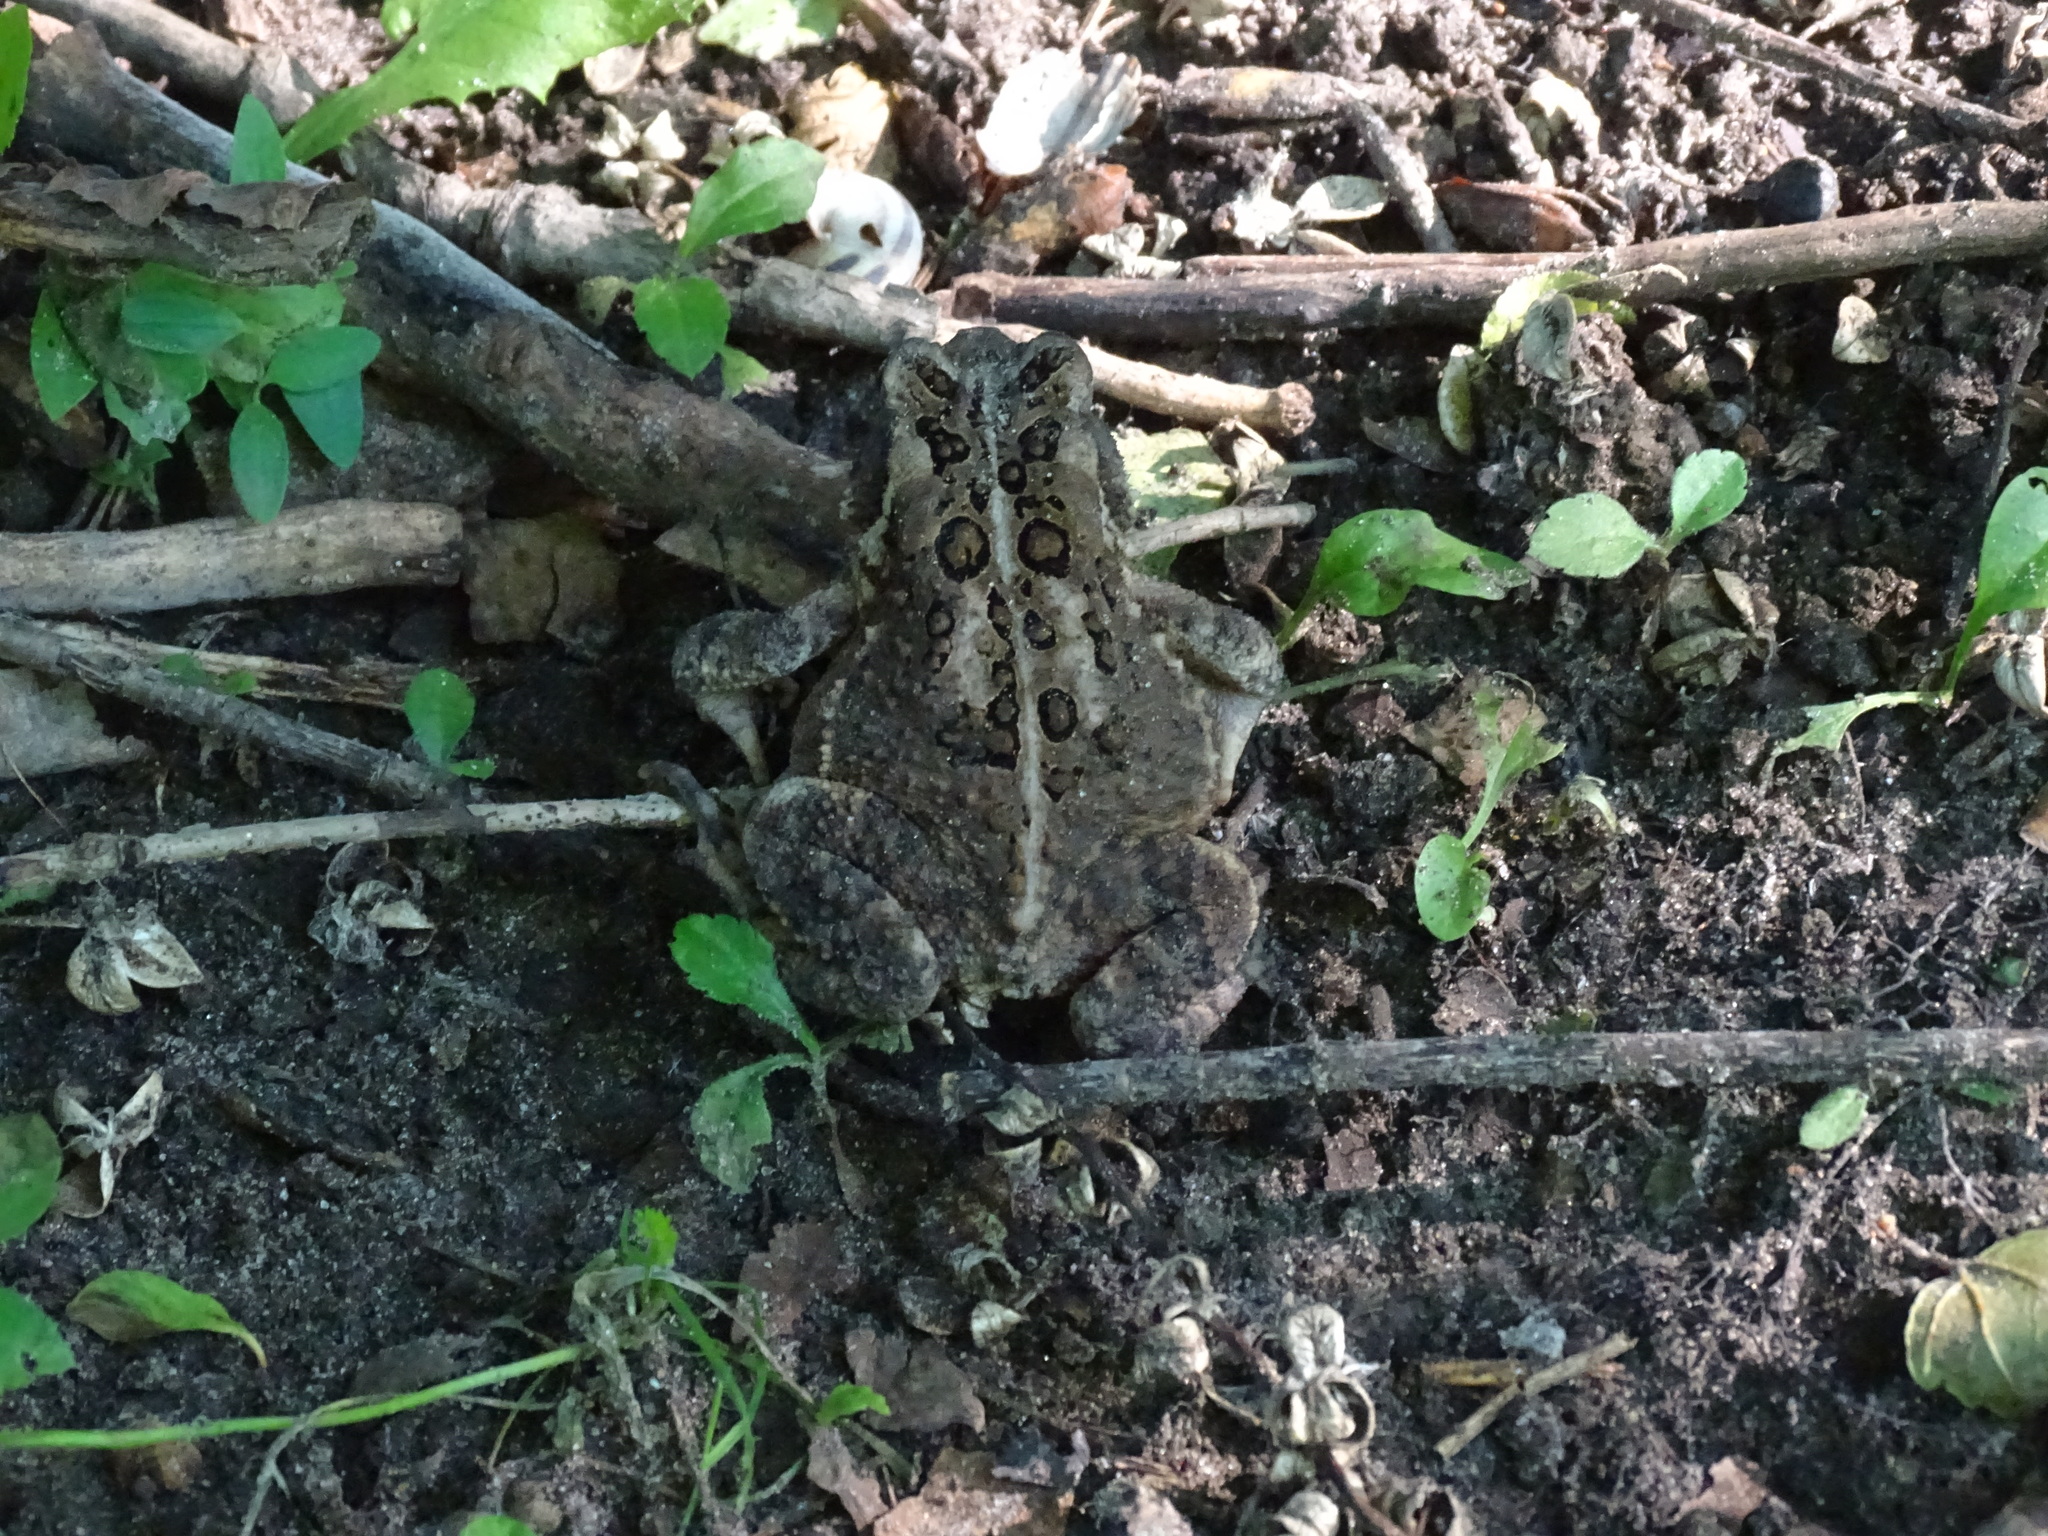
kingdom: Animalia
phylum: Chordata
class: Amphibia
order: Anura
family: Bufonidae
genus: Anaxyrus
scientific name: Anaxyrus americanus
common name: American toad
